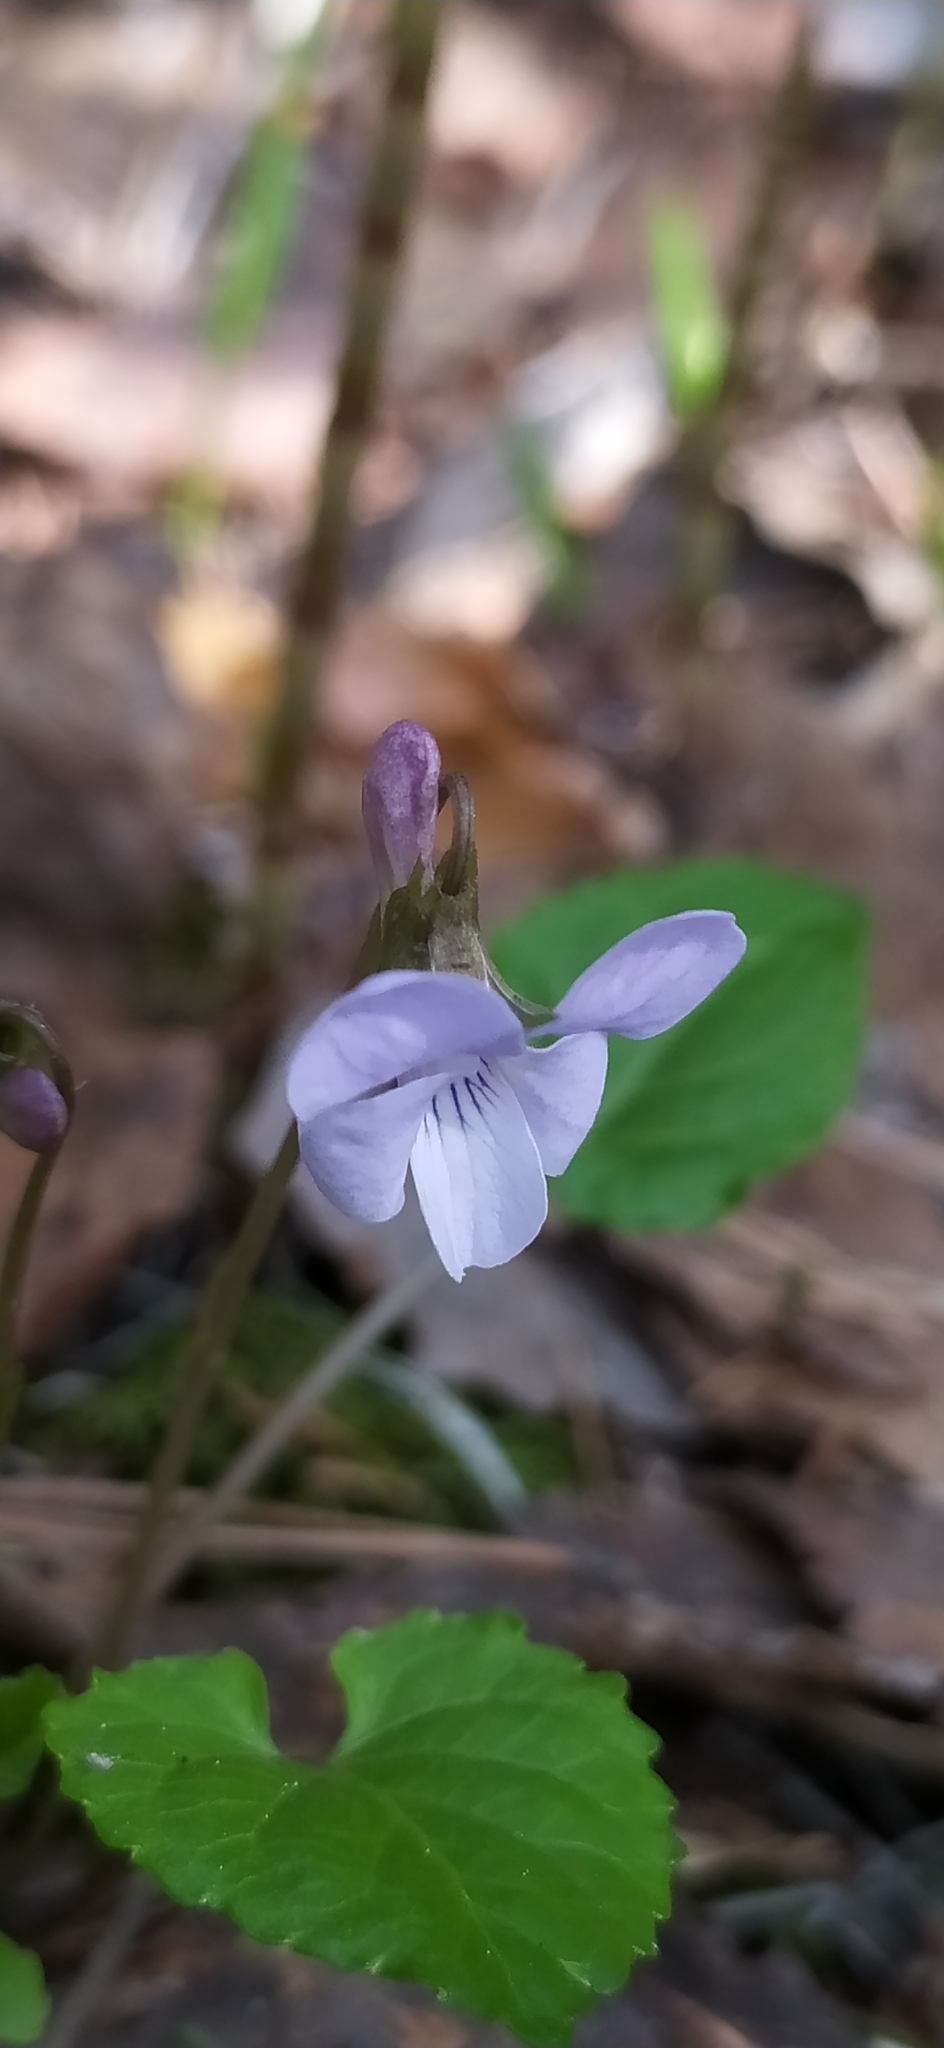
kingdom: Plantae
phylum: Tracheophyta
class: Magnoliopsida
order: Malpighiales
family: Violaceae
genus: Viola
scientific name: Viola selkirkii
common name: Selkirk's violet
